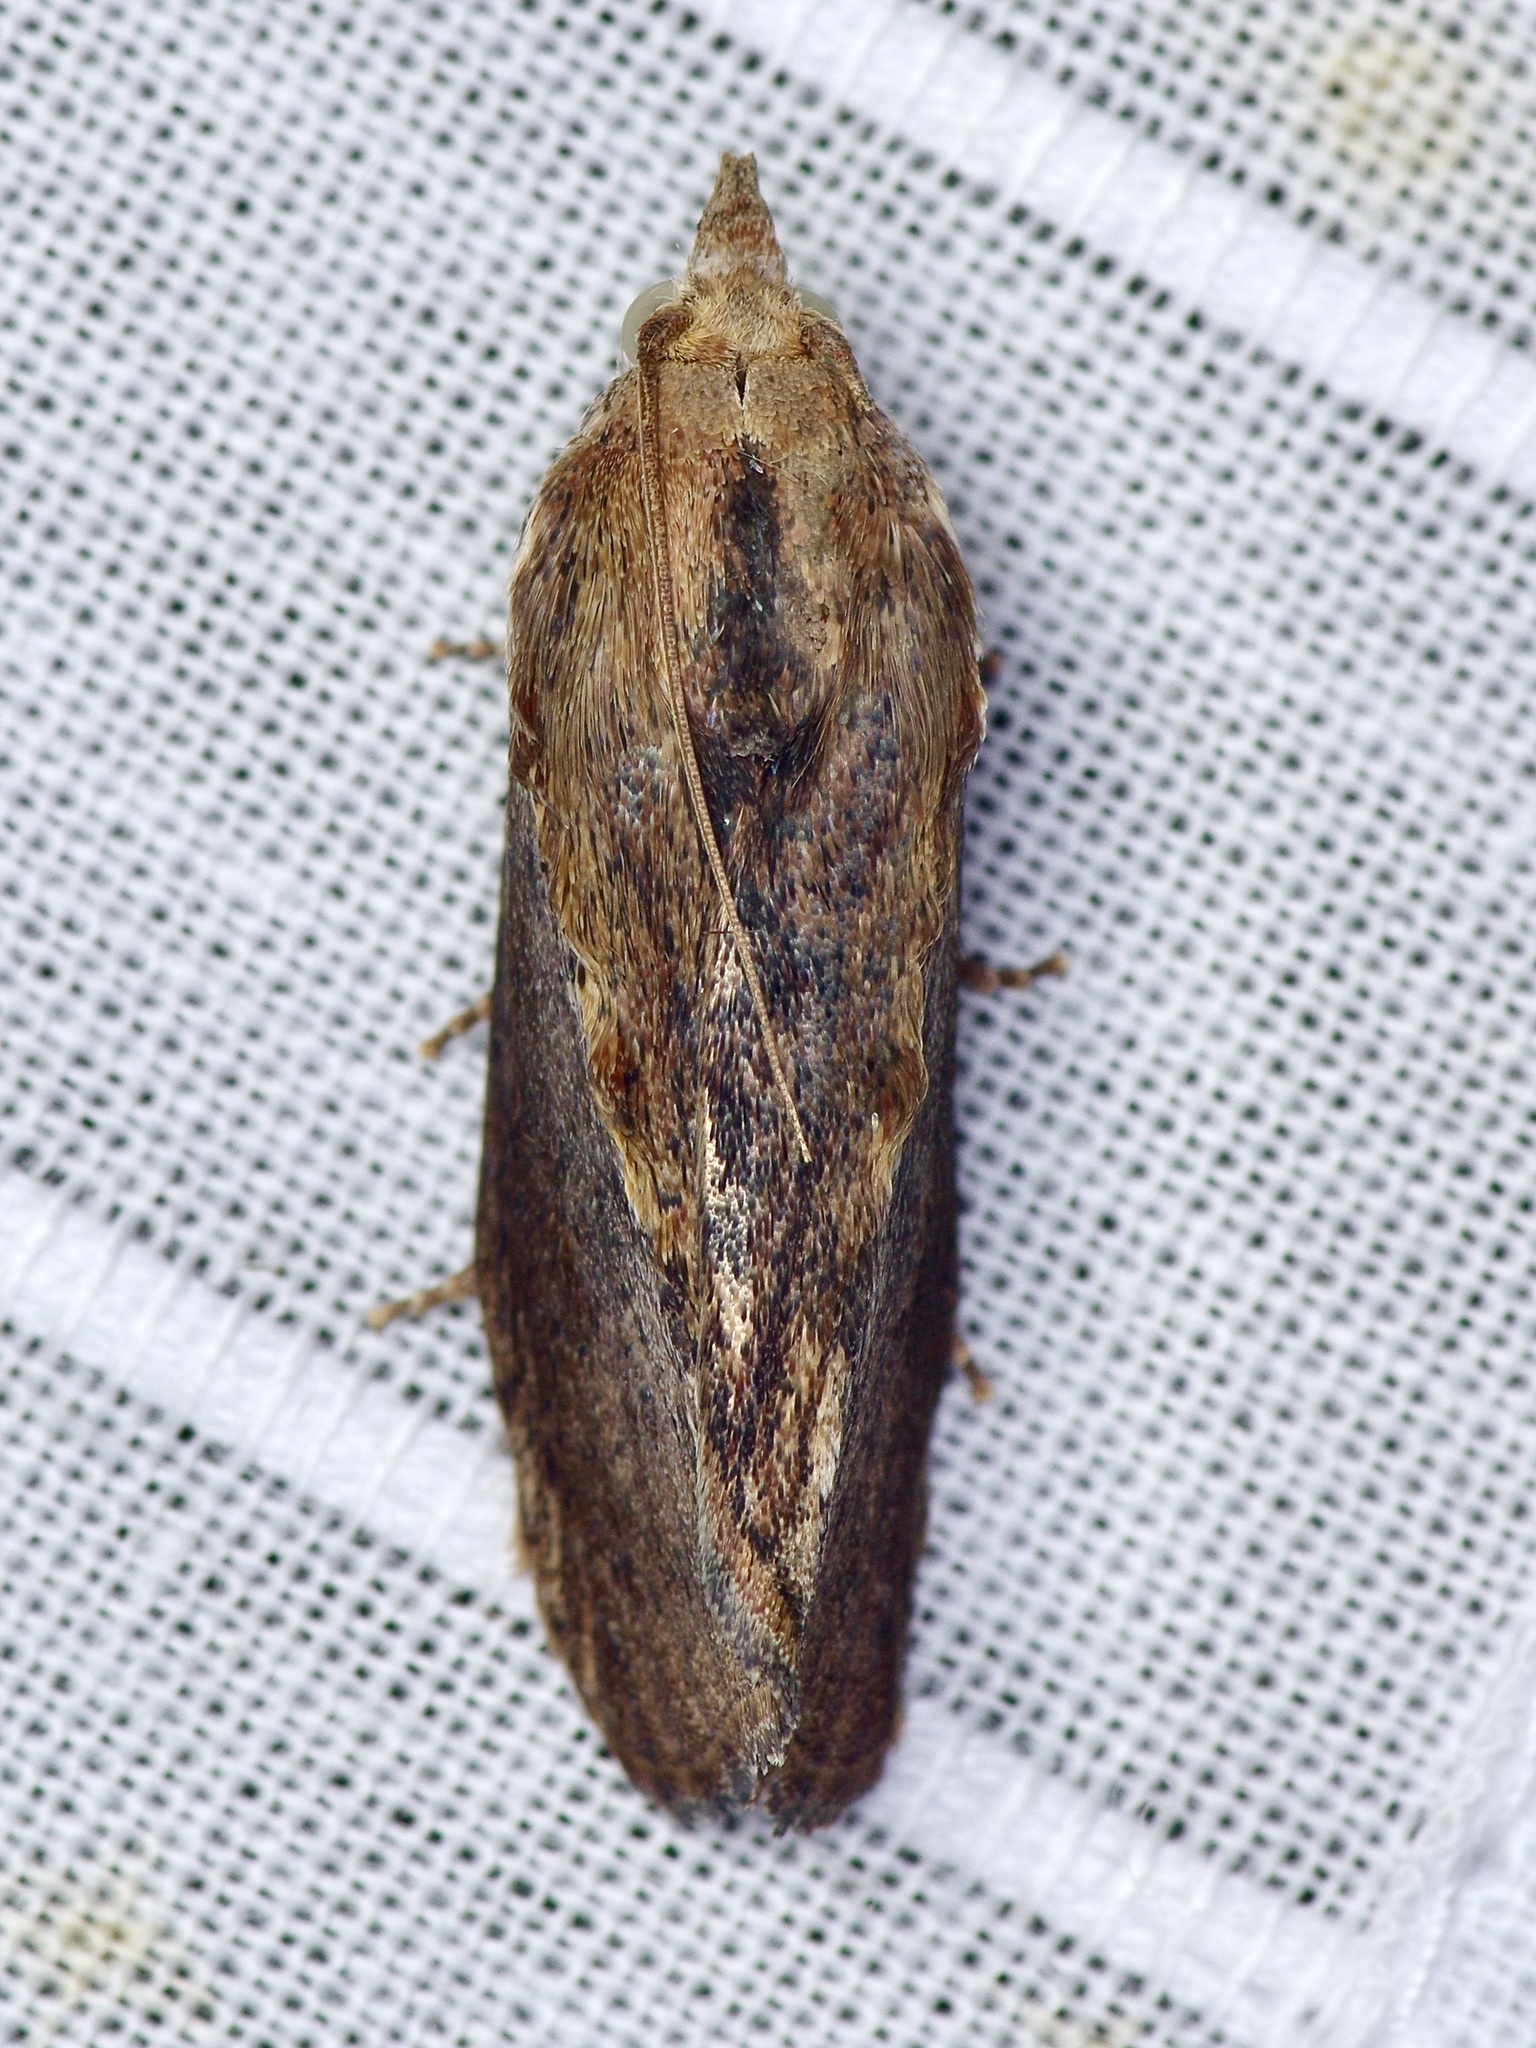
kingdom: Animalia
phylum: Arthropoda
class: Insecta
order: Lepidoptera
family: Pyralidae
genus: Galleria
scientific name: Galleria mellonella
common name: Greater wax moth
